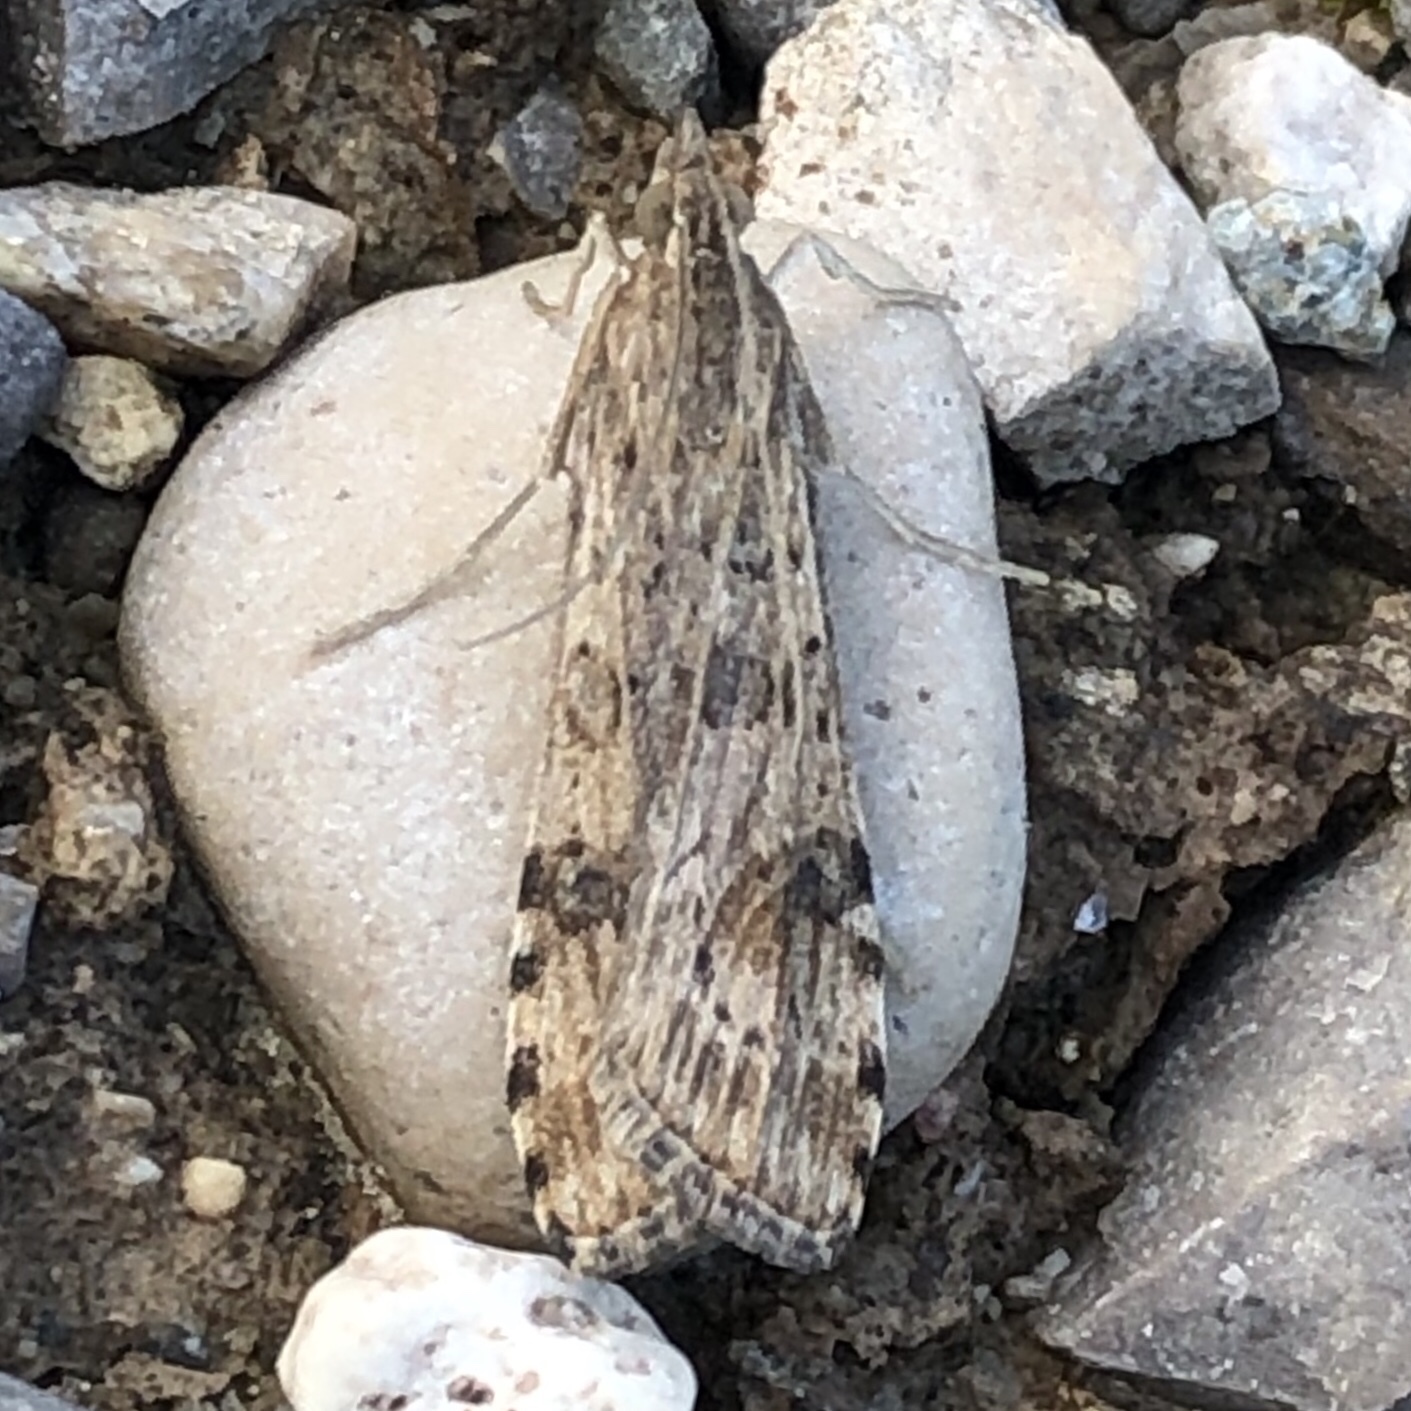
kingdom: Animalia
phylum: Arthropoda
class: Insecta
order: Lepidoptera
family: Crambidae
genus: Nomophila
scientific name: Nomophila nearctica
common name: American rush veneer
